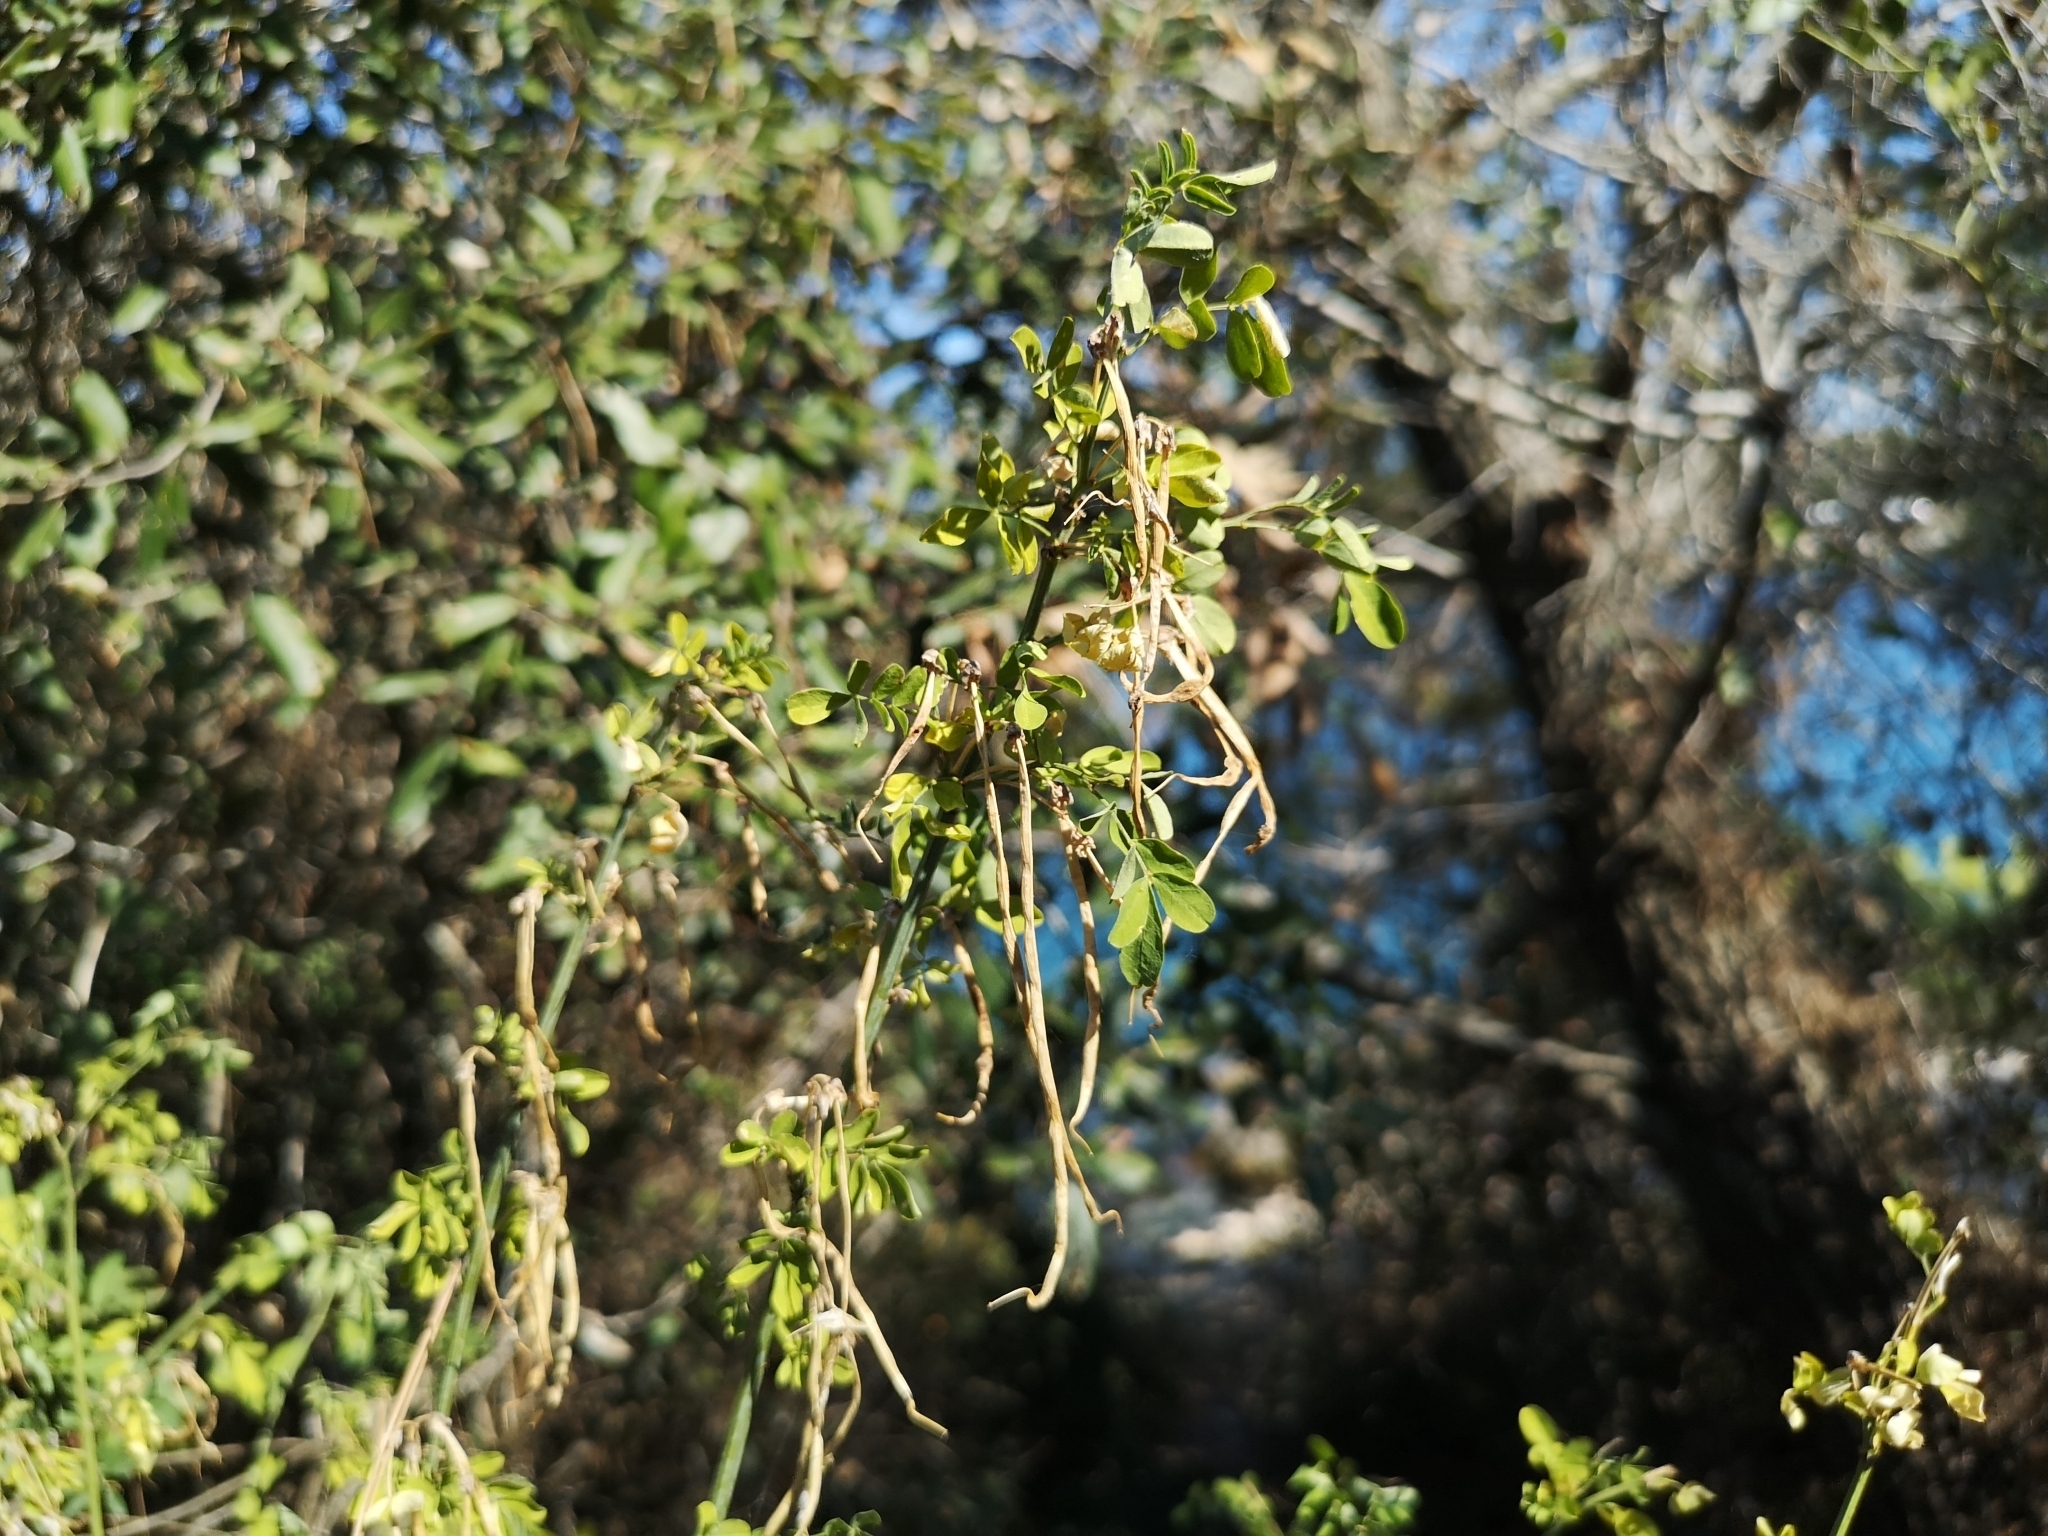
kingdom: Plantae
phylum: Tracheophyta
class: Magnoliopsida
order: Fabales
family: Fabaceae
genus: Hippocrepis
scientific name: Hippocrepis emerus
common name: Scorpion senna
